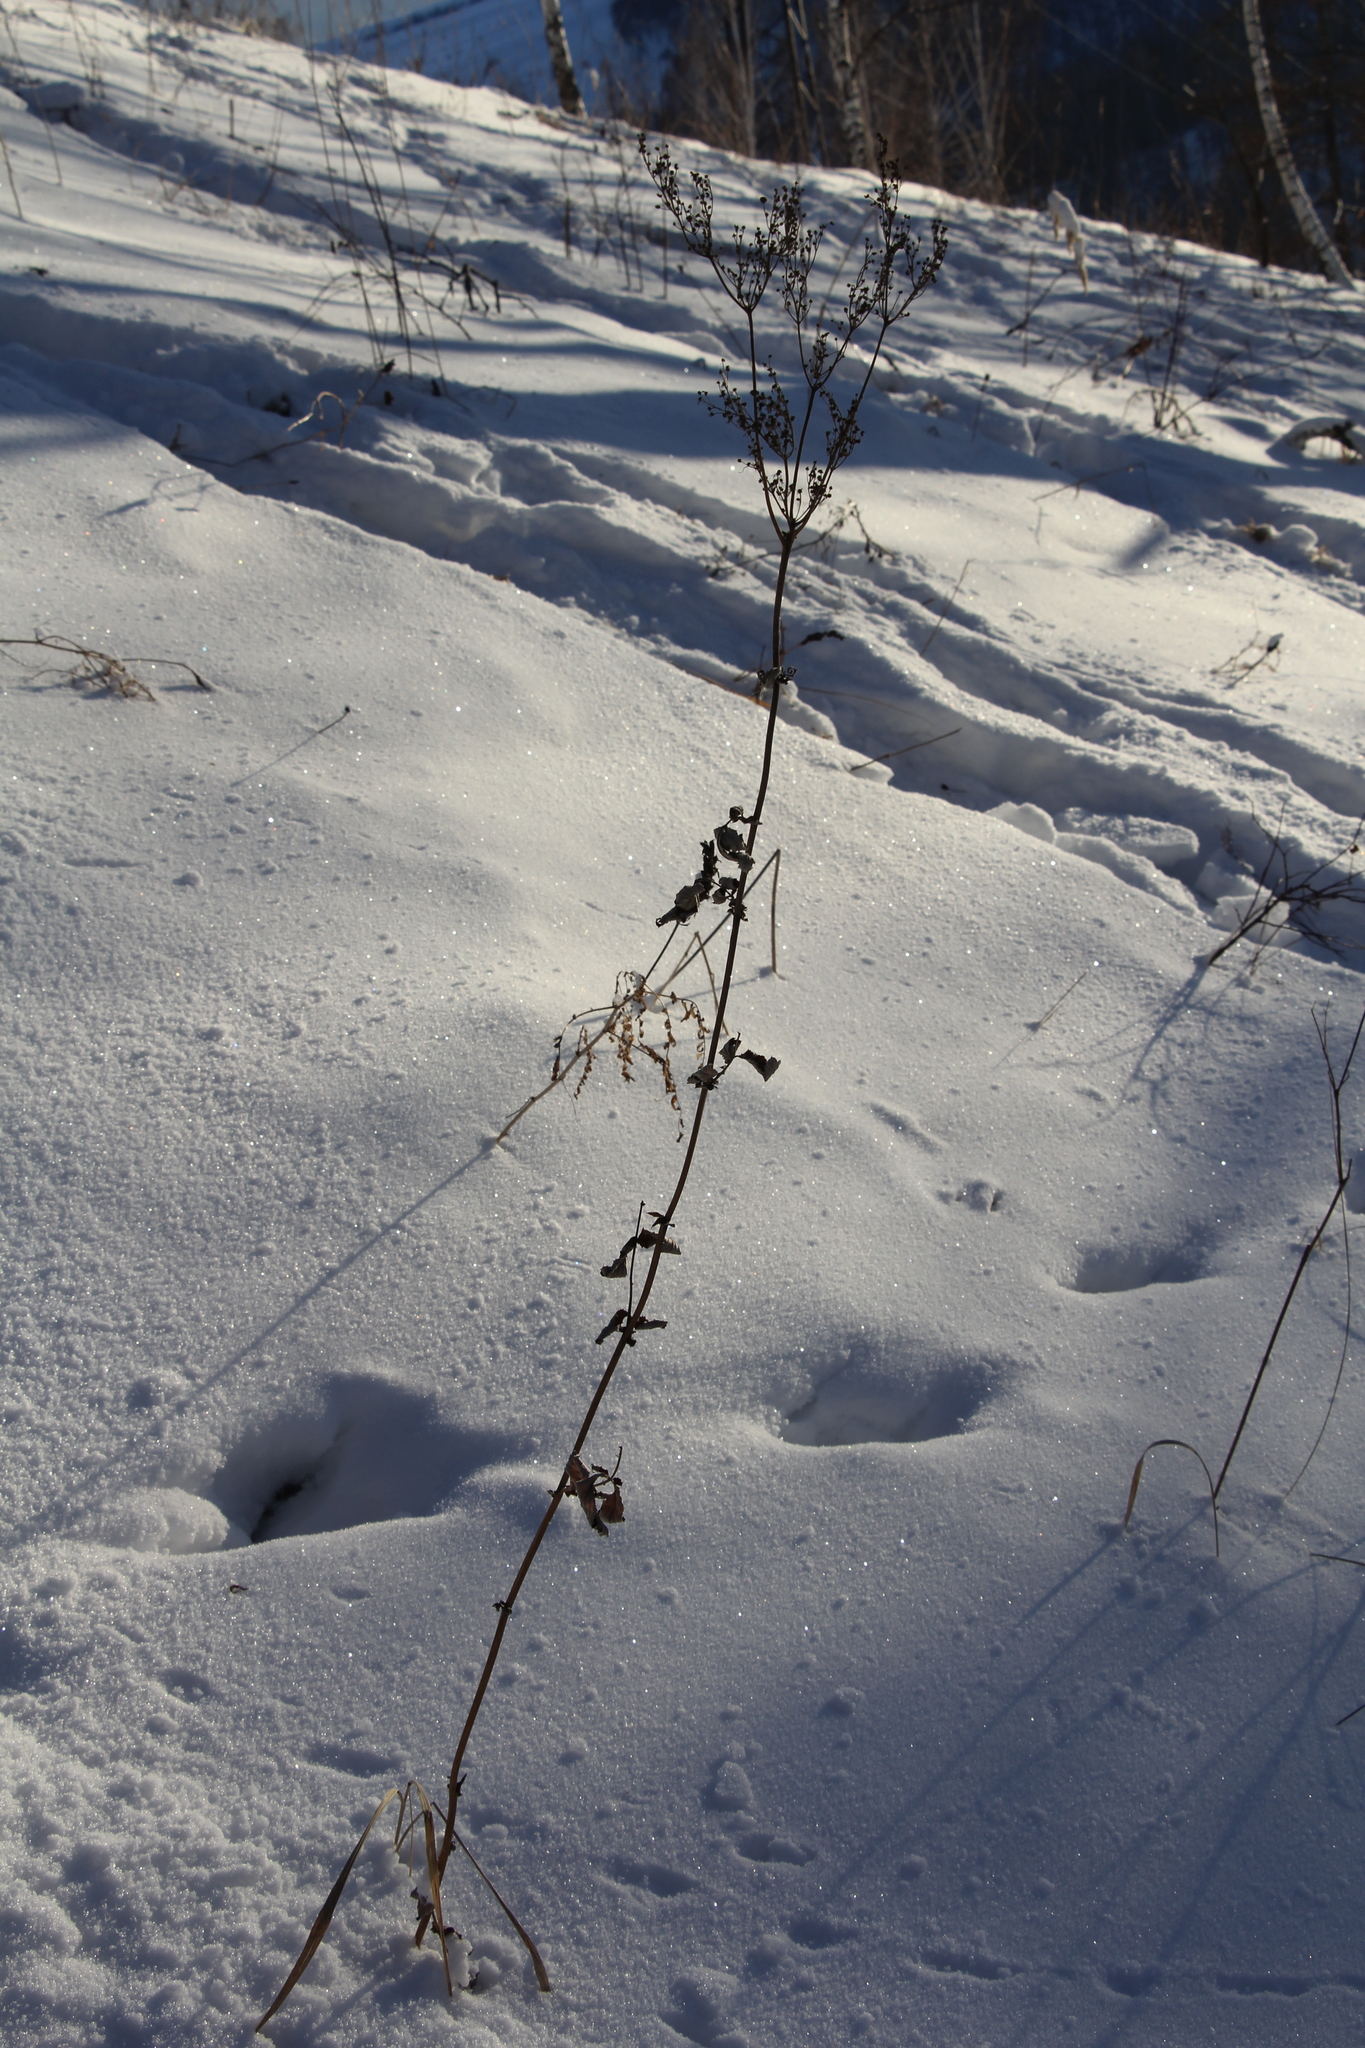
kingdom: Plantae
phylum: Tracheophyta
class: Magnoliopsida
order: Rosales
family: Rosaceae
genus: Filipendula
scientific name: Filipendula ulmaria
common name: Meadowsweet
